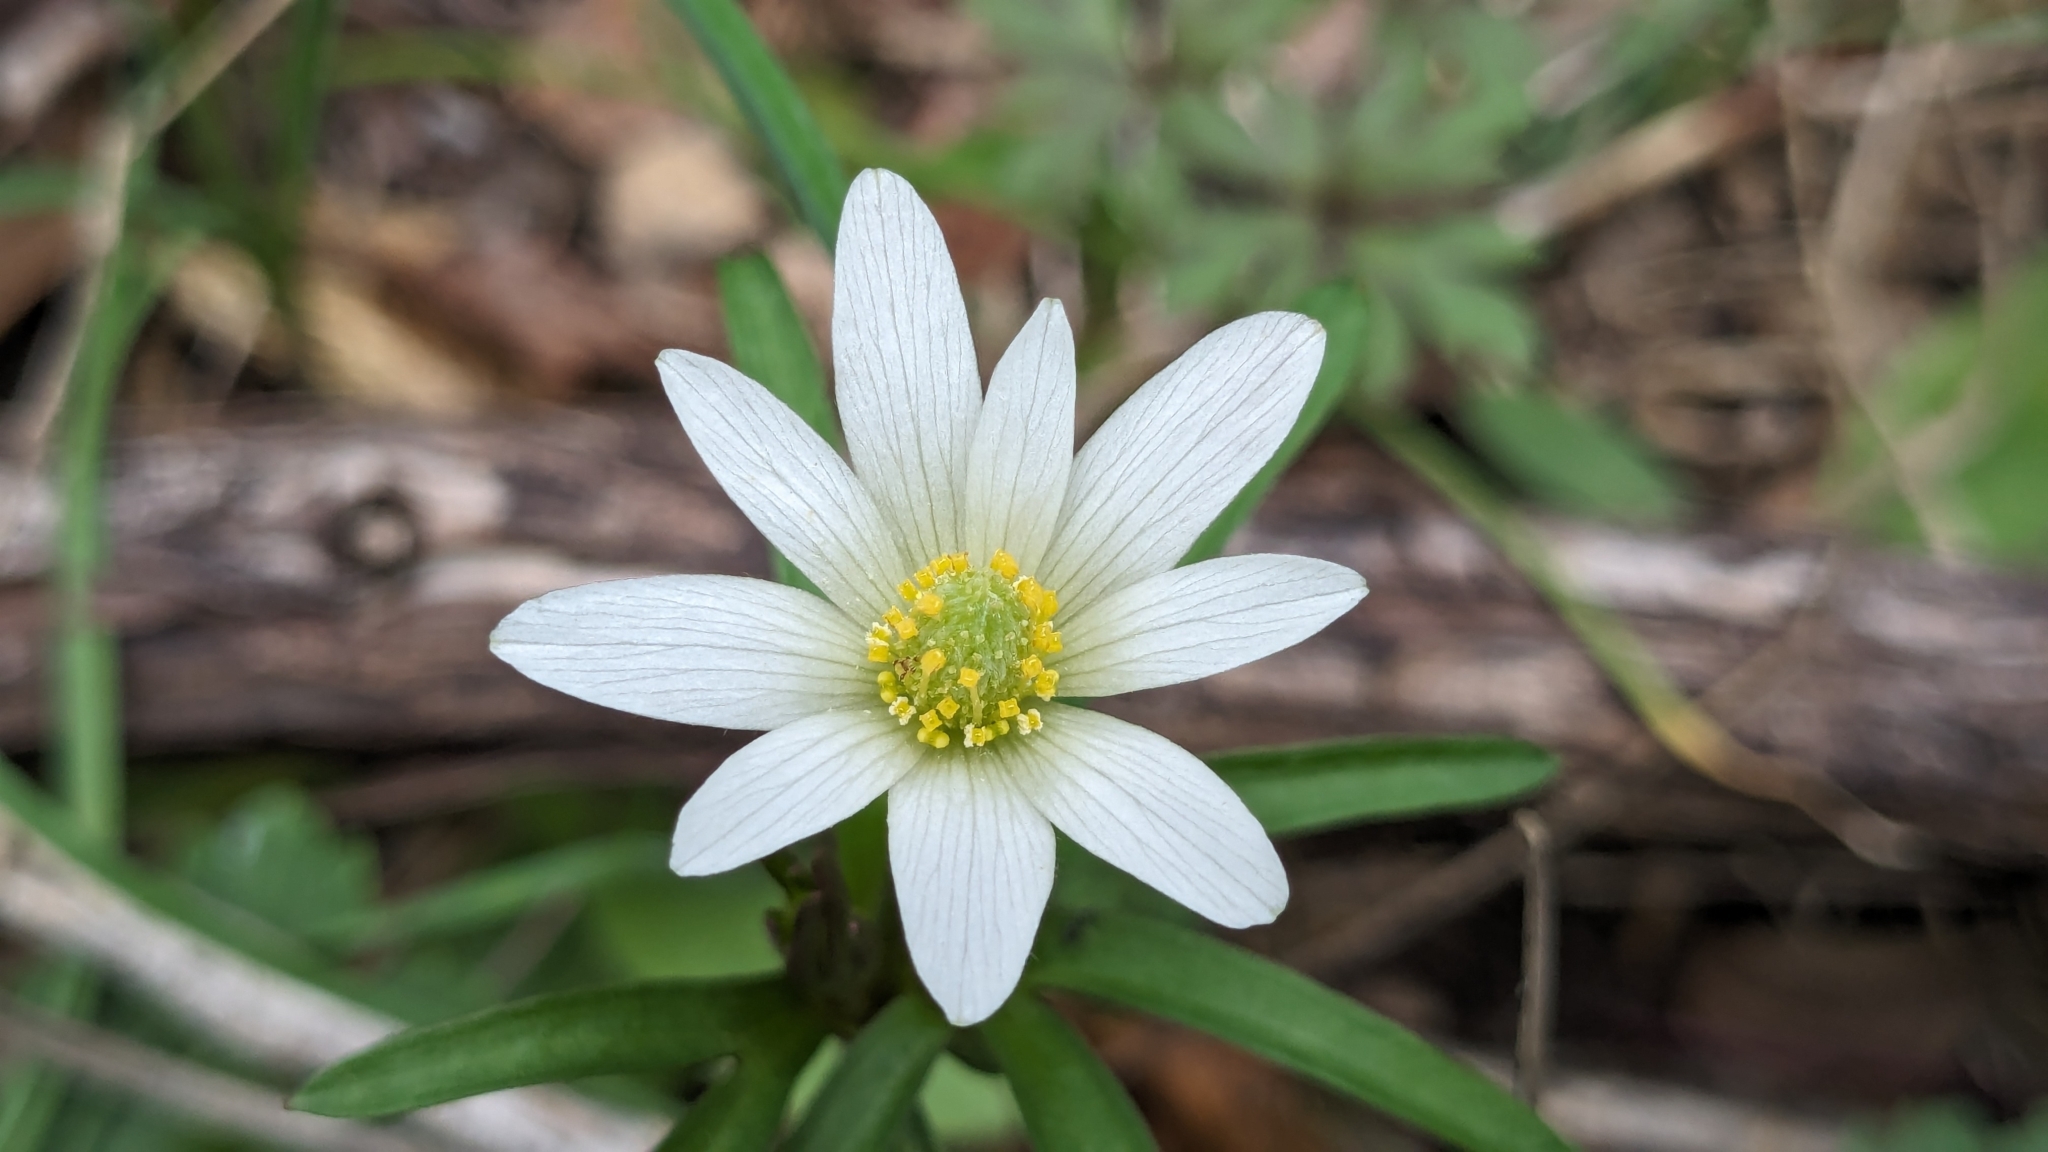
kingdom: Plantae
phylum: Tracheophyta
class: Magnoliopsida
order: Ranunculales
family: Ranunculaceae
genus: Anemone
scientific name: Anemone edwardsiana
